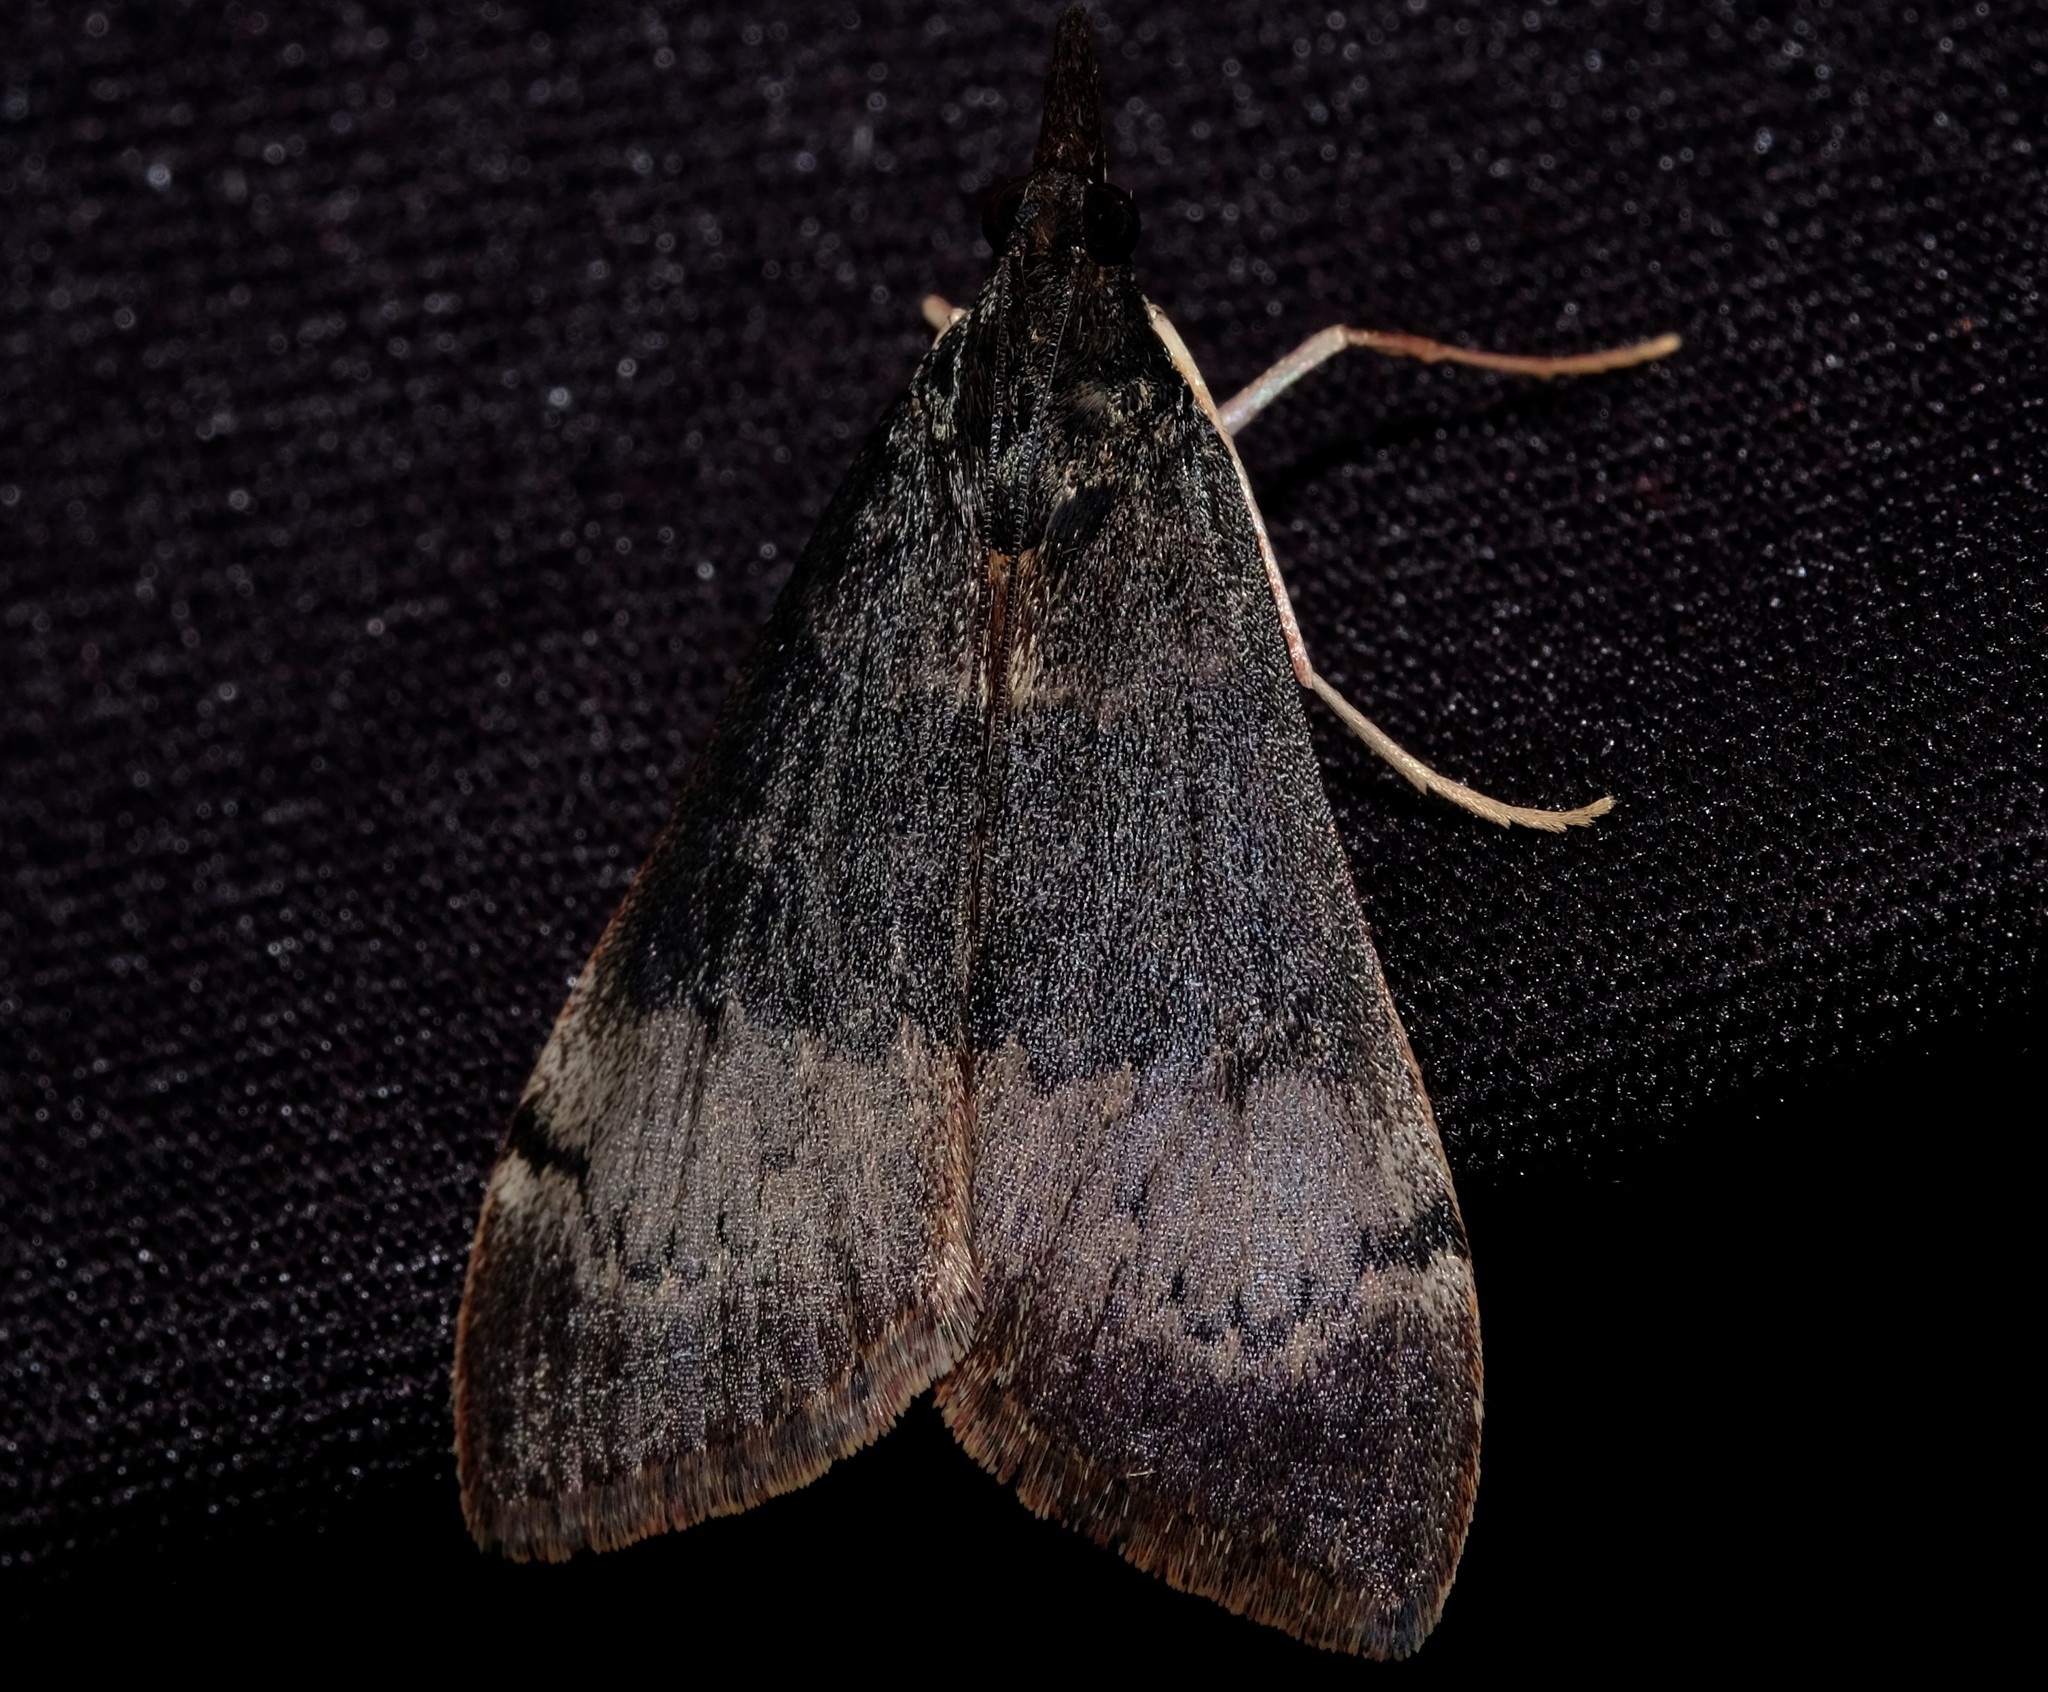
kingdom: Animalia
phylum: Arthropoda
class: Insecta
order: Lepidoptera
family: Crambidae
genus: Uresiphita
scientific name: Uresiphita ornithopteralis
